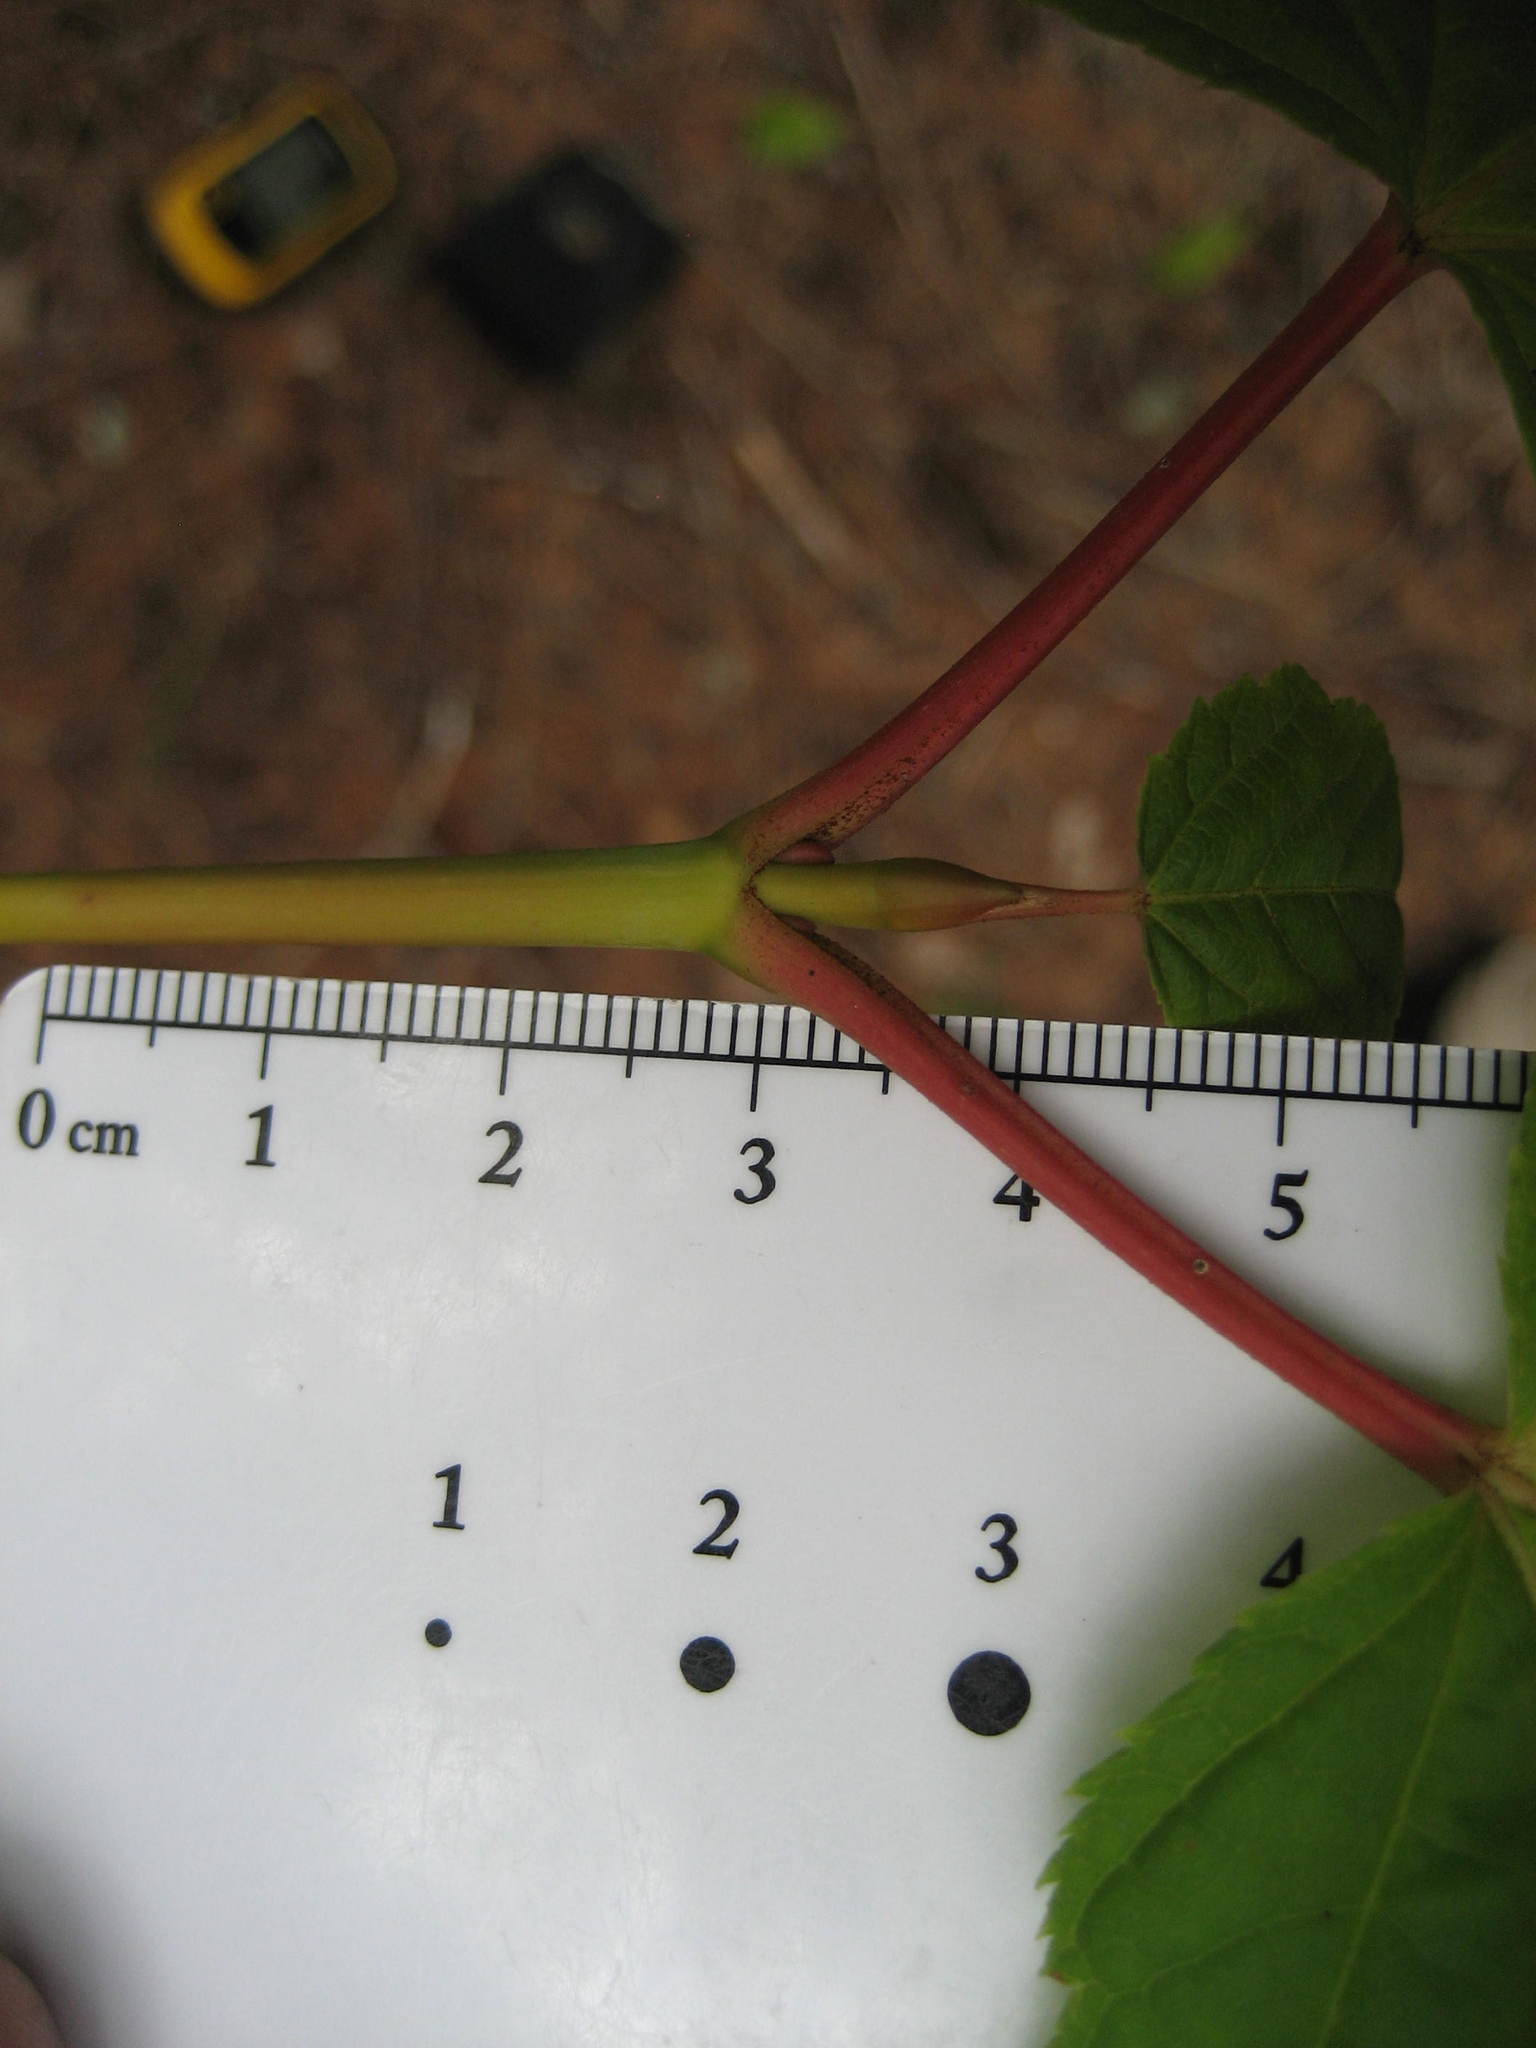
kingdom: Plantae
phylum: Tracheophyta
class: Magnoliopsida
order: Sapindales
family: Sapindaceae
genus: Acer
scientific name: Acer pensylvanicum
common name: Moosewood
